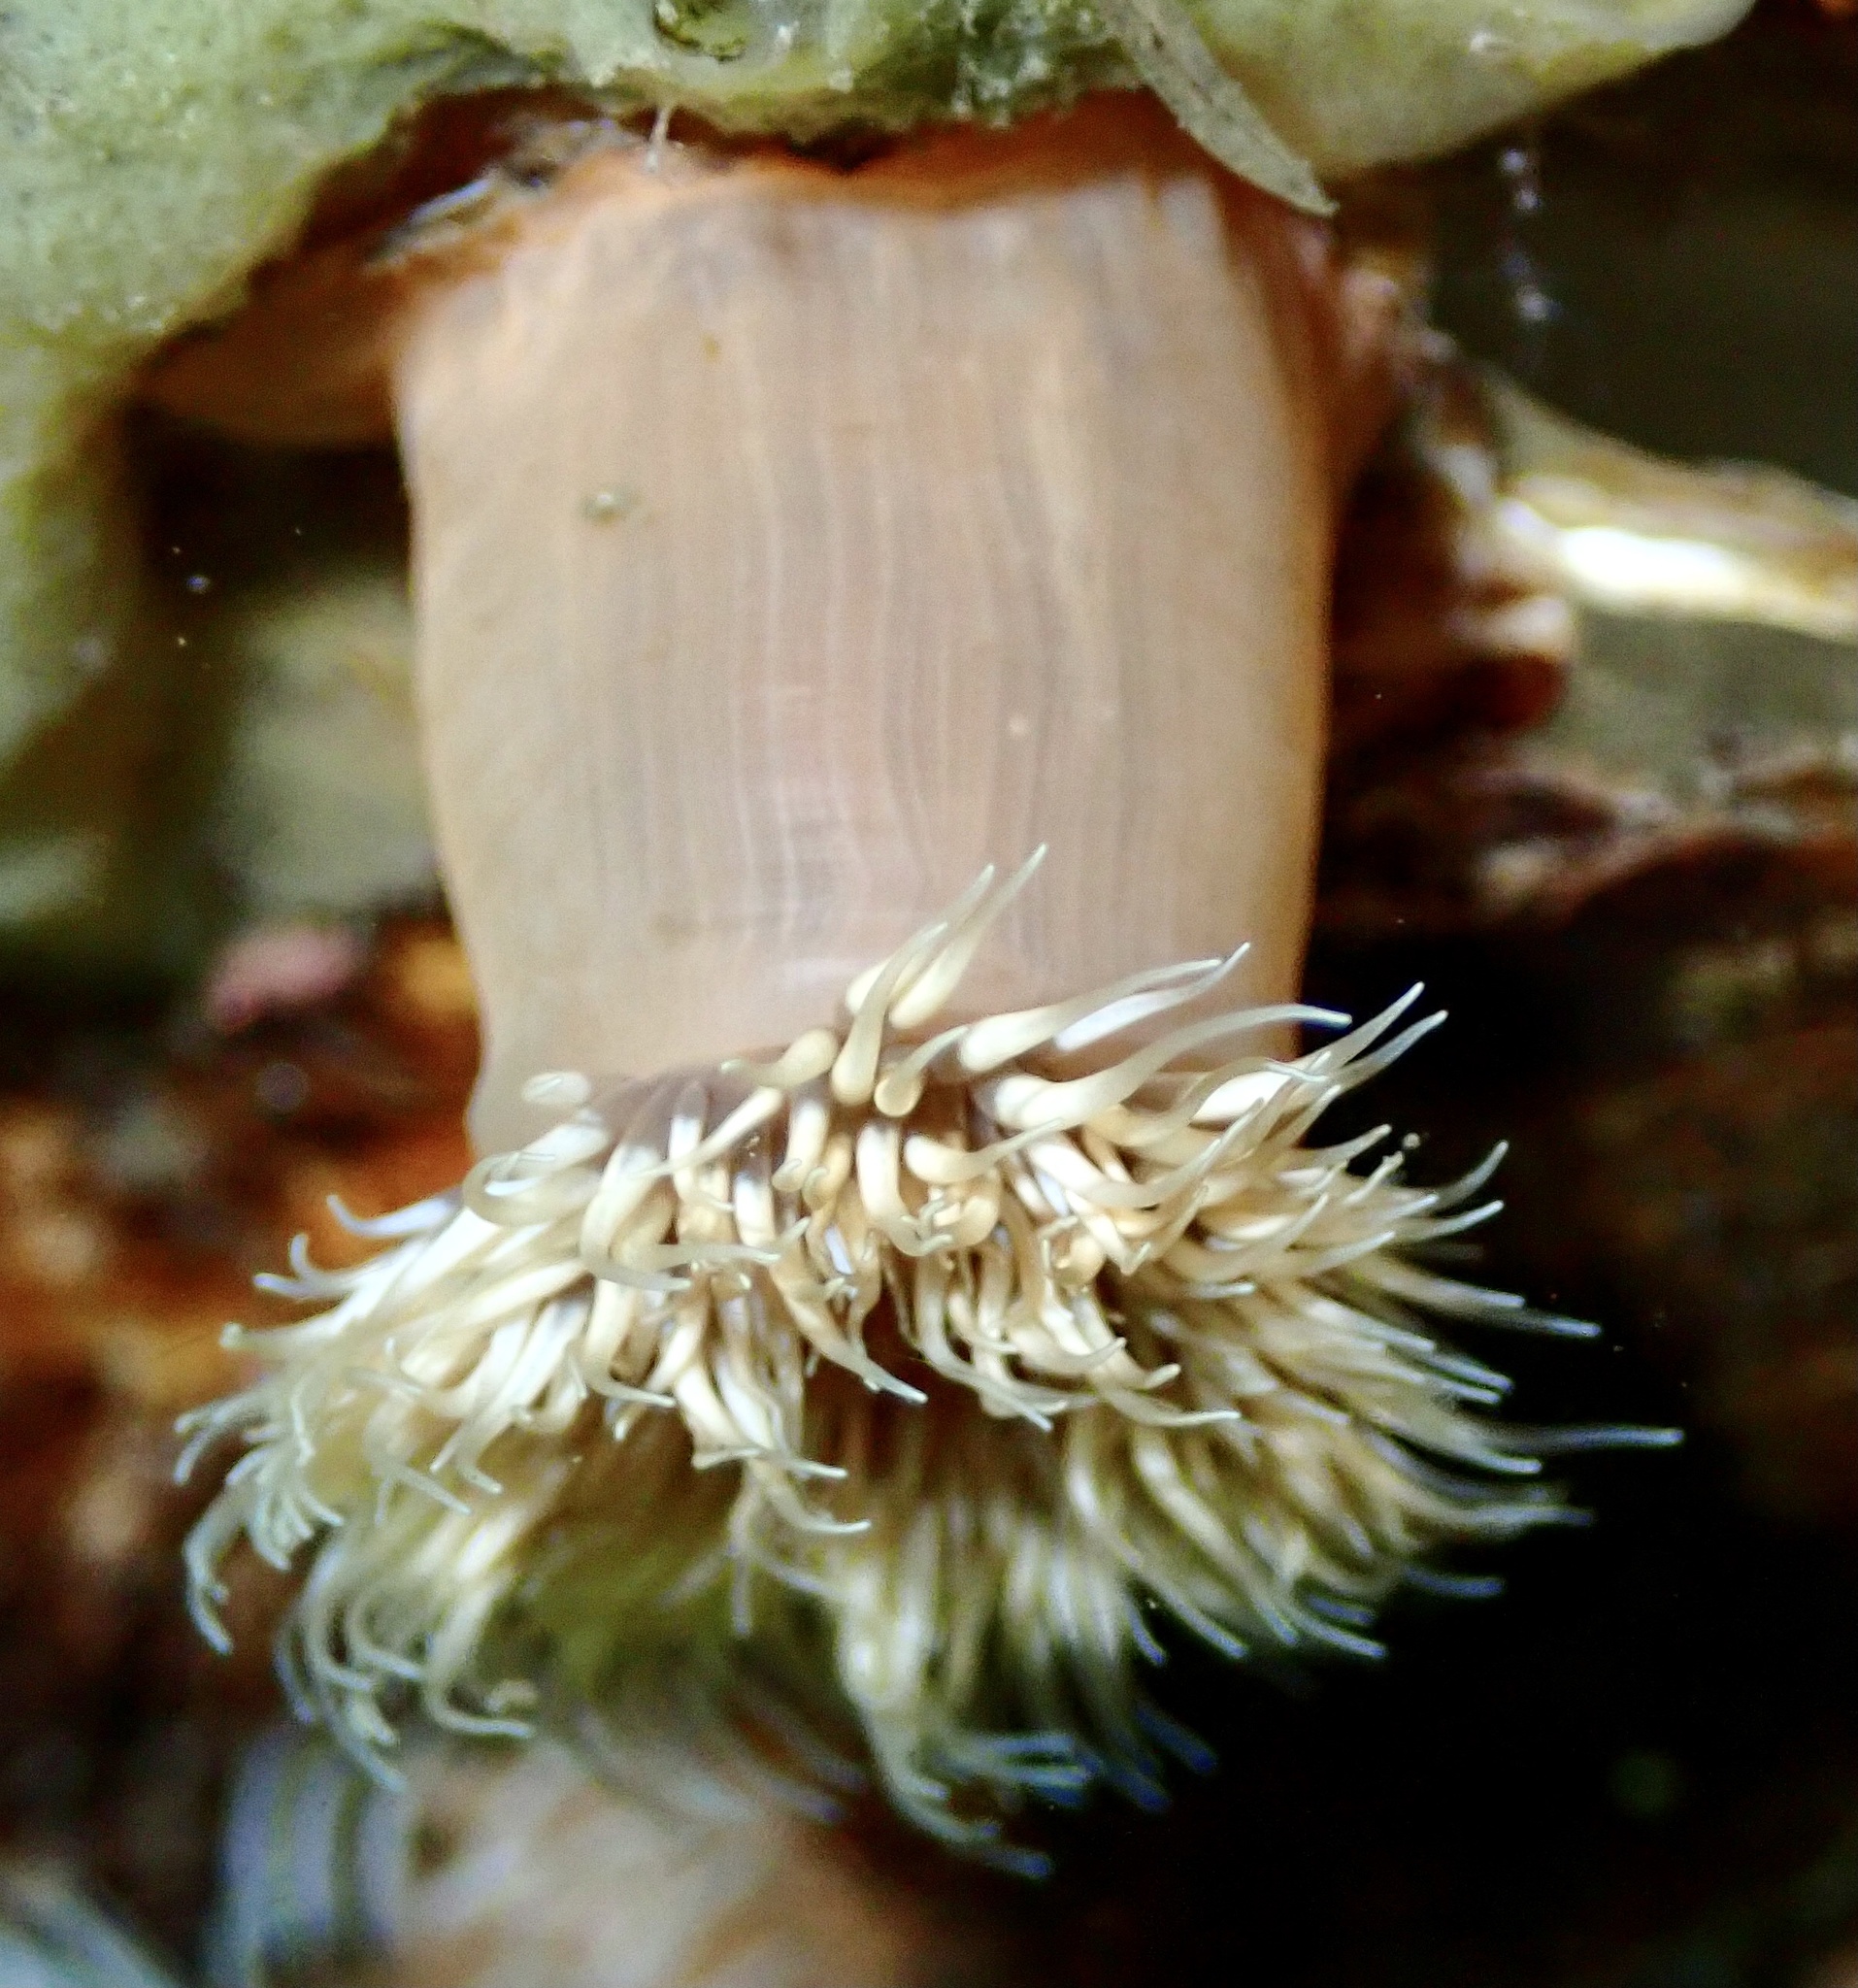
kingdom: Animalia
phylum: Cnidaria
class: Anthozoa
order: Actiniaria
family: Metridiidae
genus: Metridium
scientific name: Metridium senile
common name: Clonal plumose anemone
